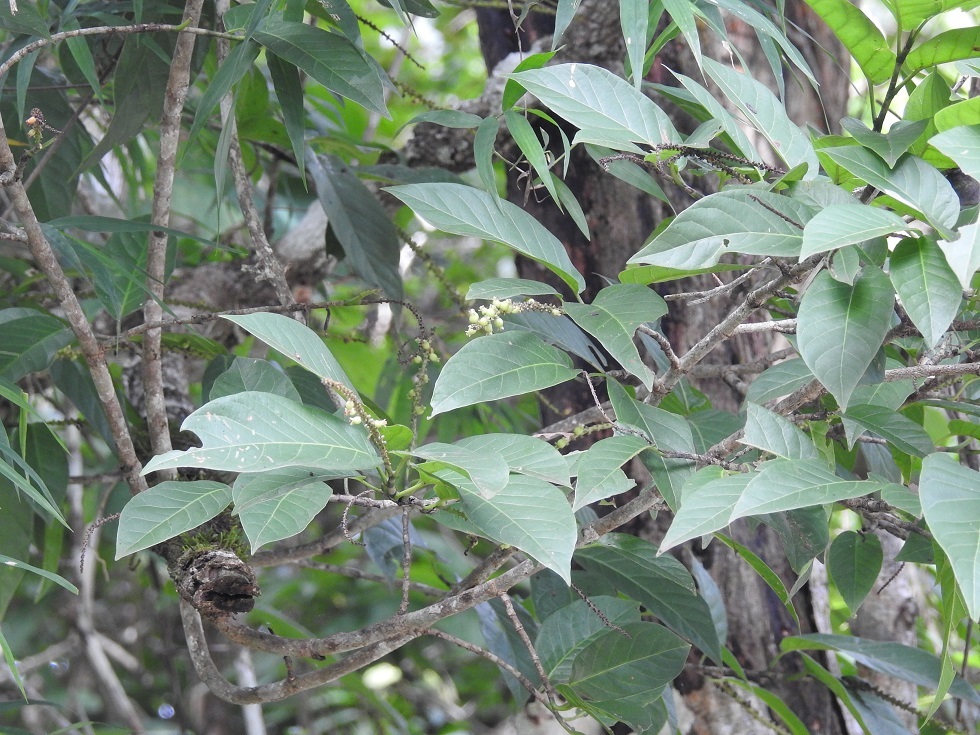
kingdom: Plantae
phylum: Tracheophyta
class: Magnoliopsida
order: Caryophyllales
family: Polygonaceae
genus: Coccoloba
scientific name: Coccoloba montana
